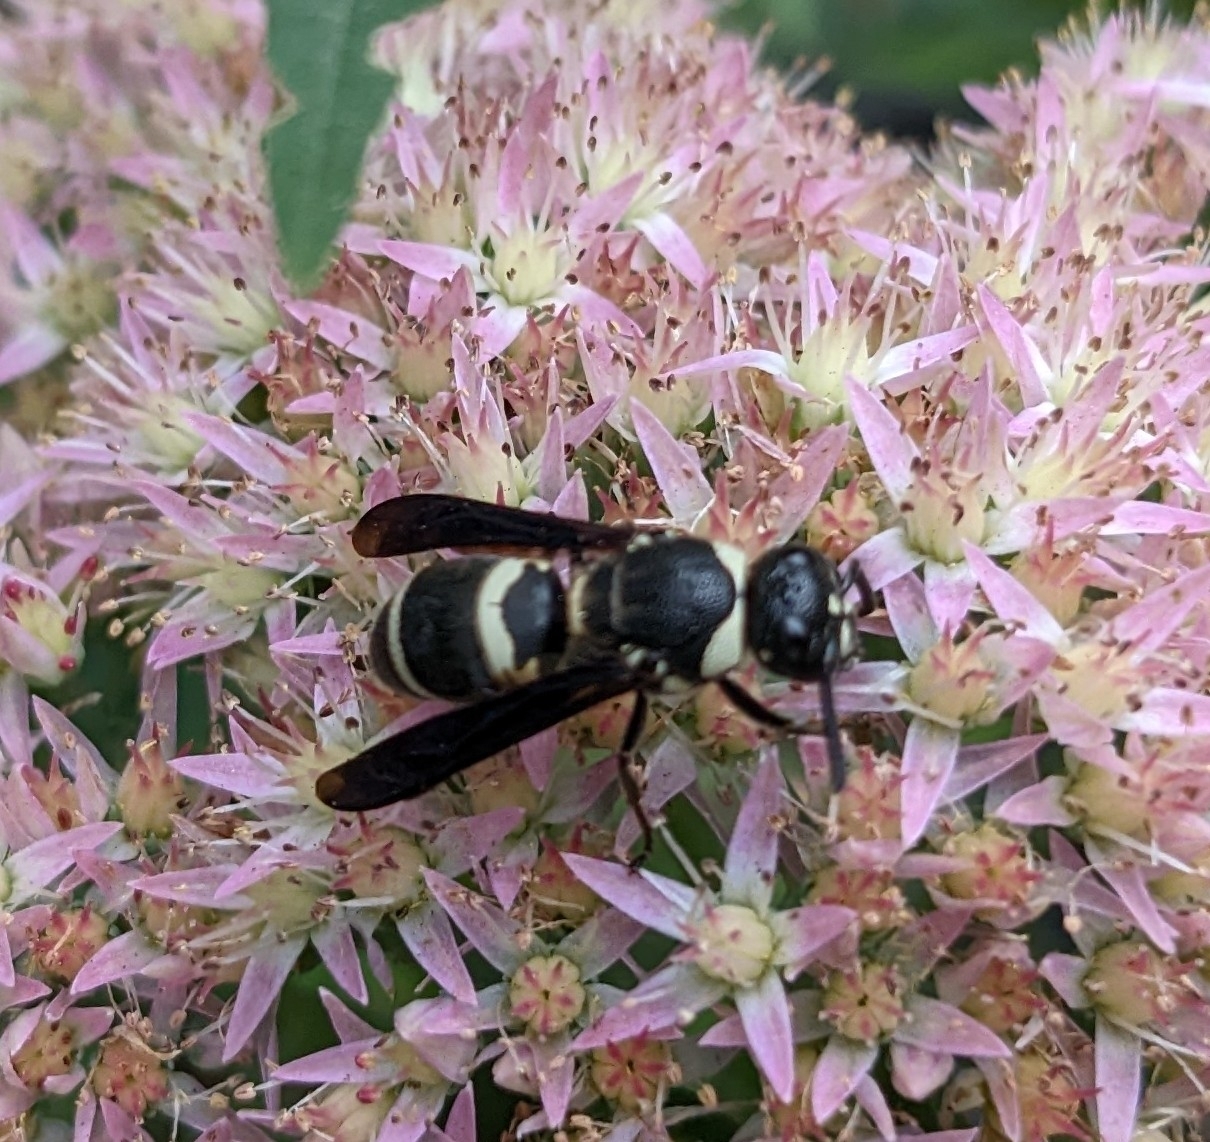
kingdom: Animalia
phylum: Arthropoda
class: Insecta
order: Hymenoptera
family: Eumenidae
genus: Euodynerus
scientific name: Euodynerus megaera
